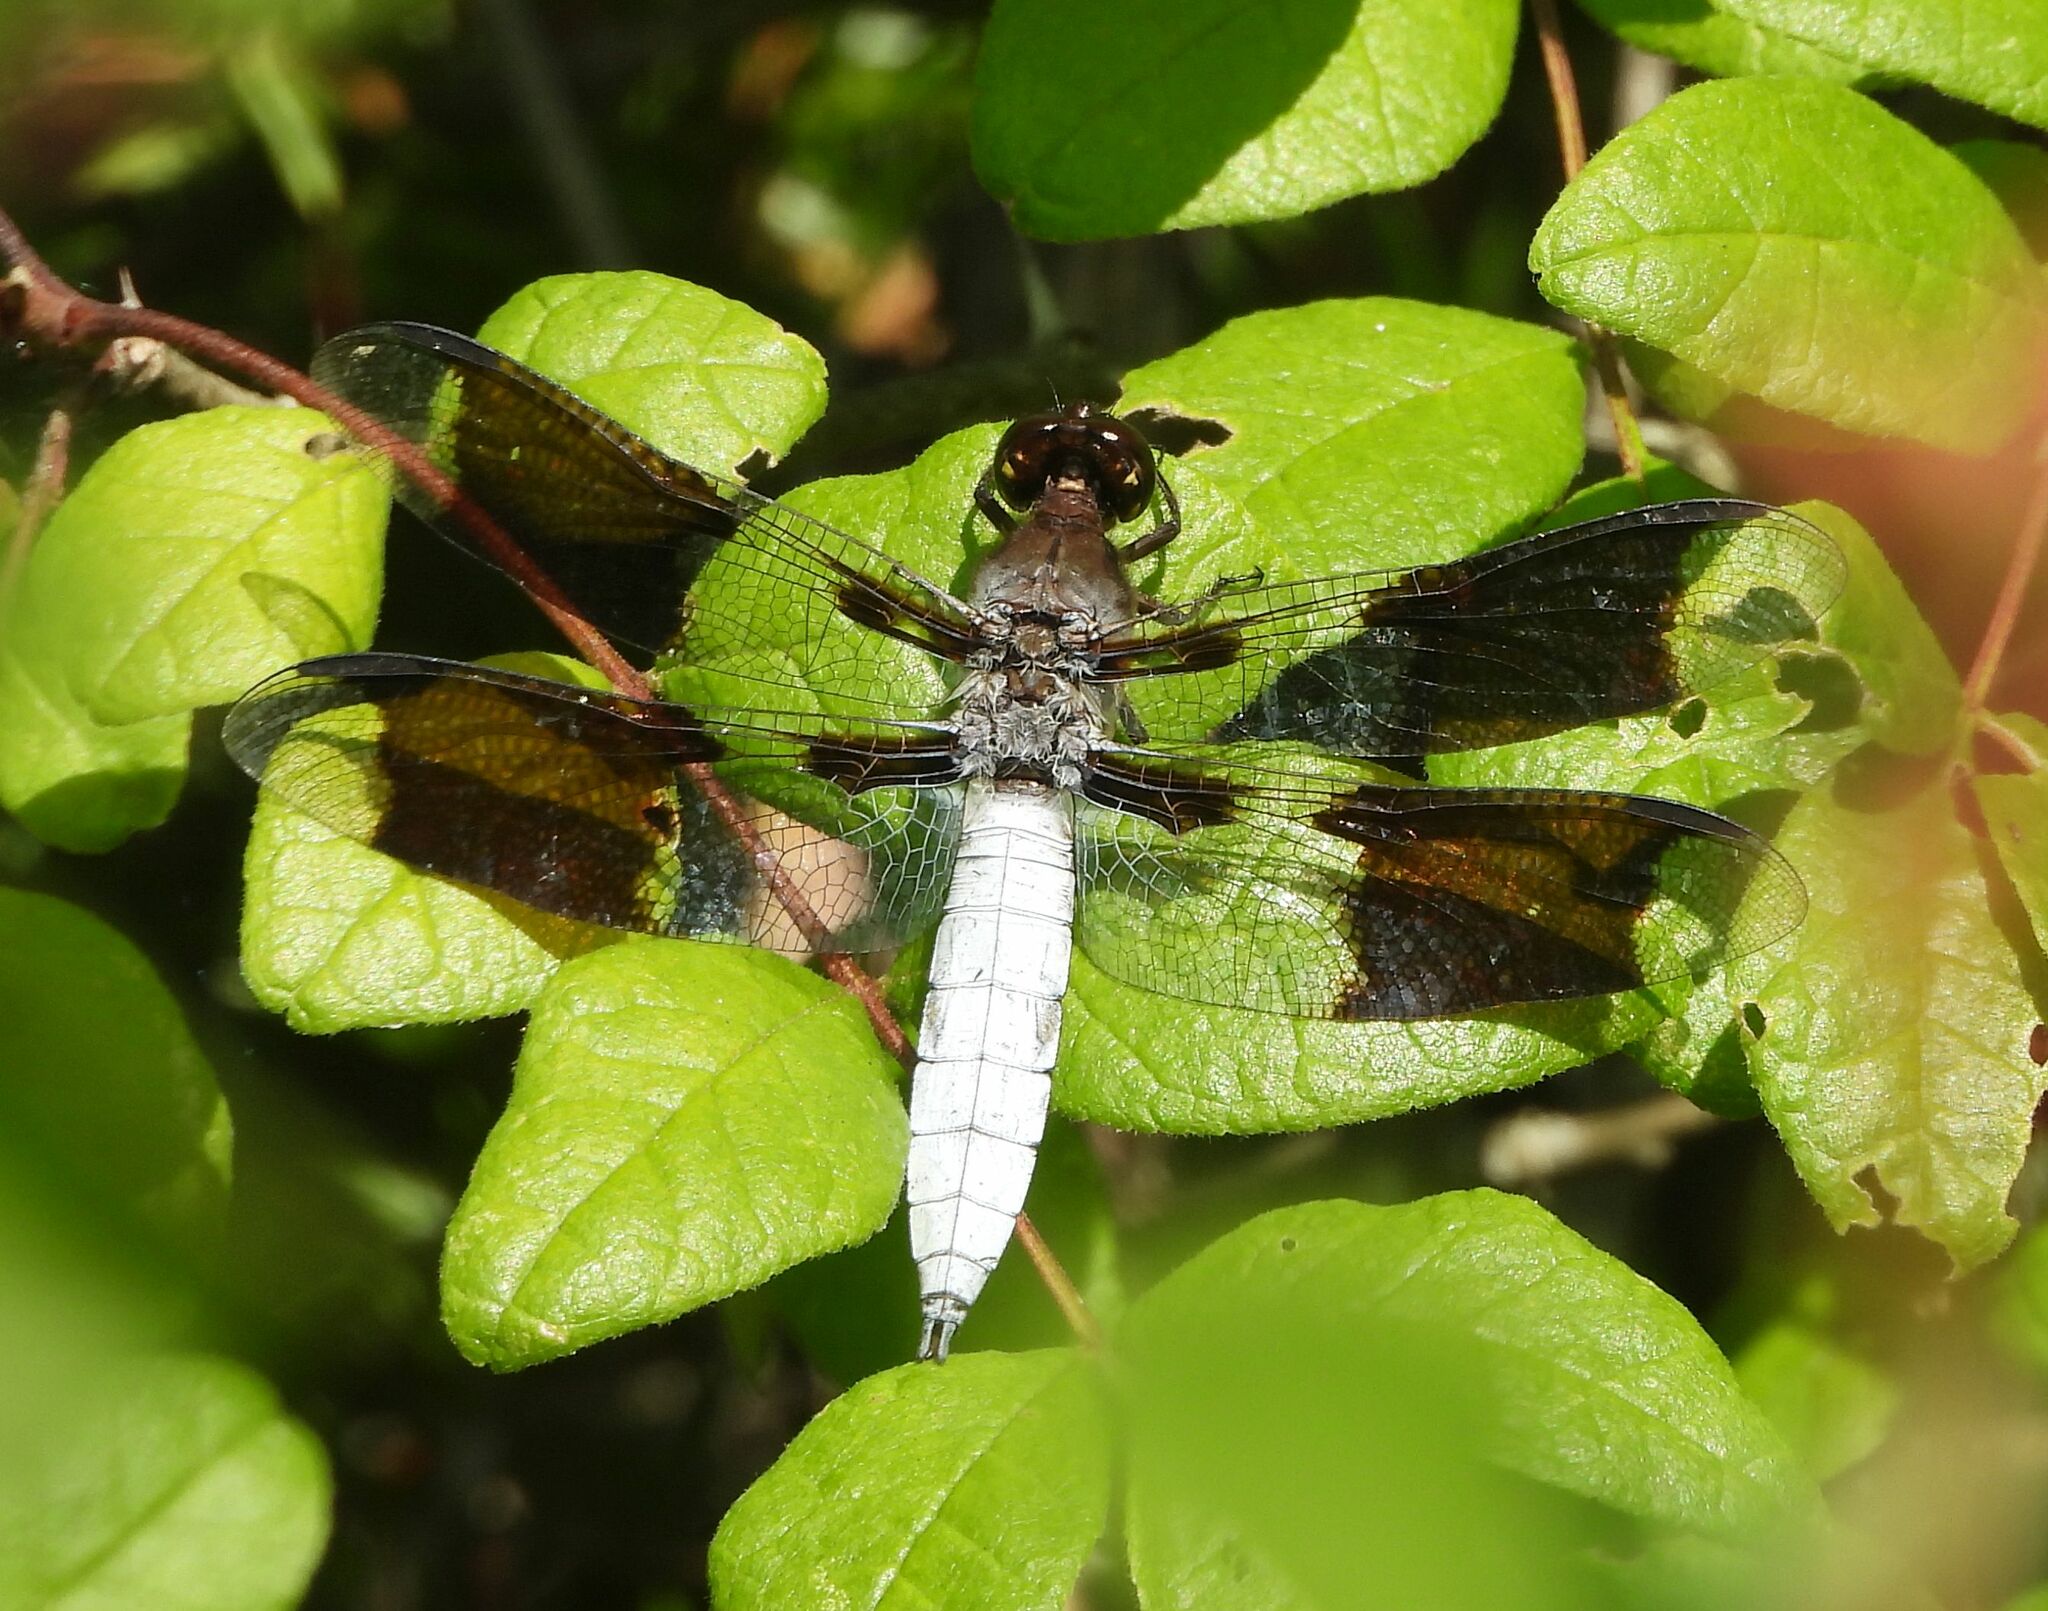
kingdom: Animalia
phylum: Arthropoda
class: Insecta
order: Odonata
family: Libellulidae
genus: Plathemis
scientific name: Plathemis lydia
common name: Common whitetail
